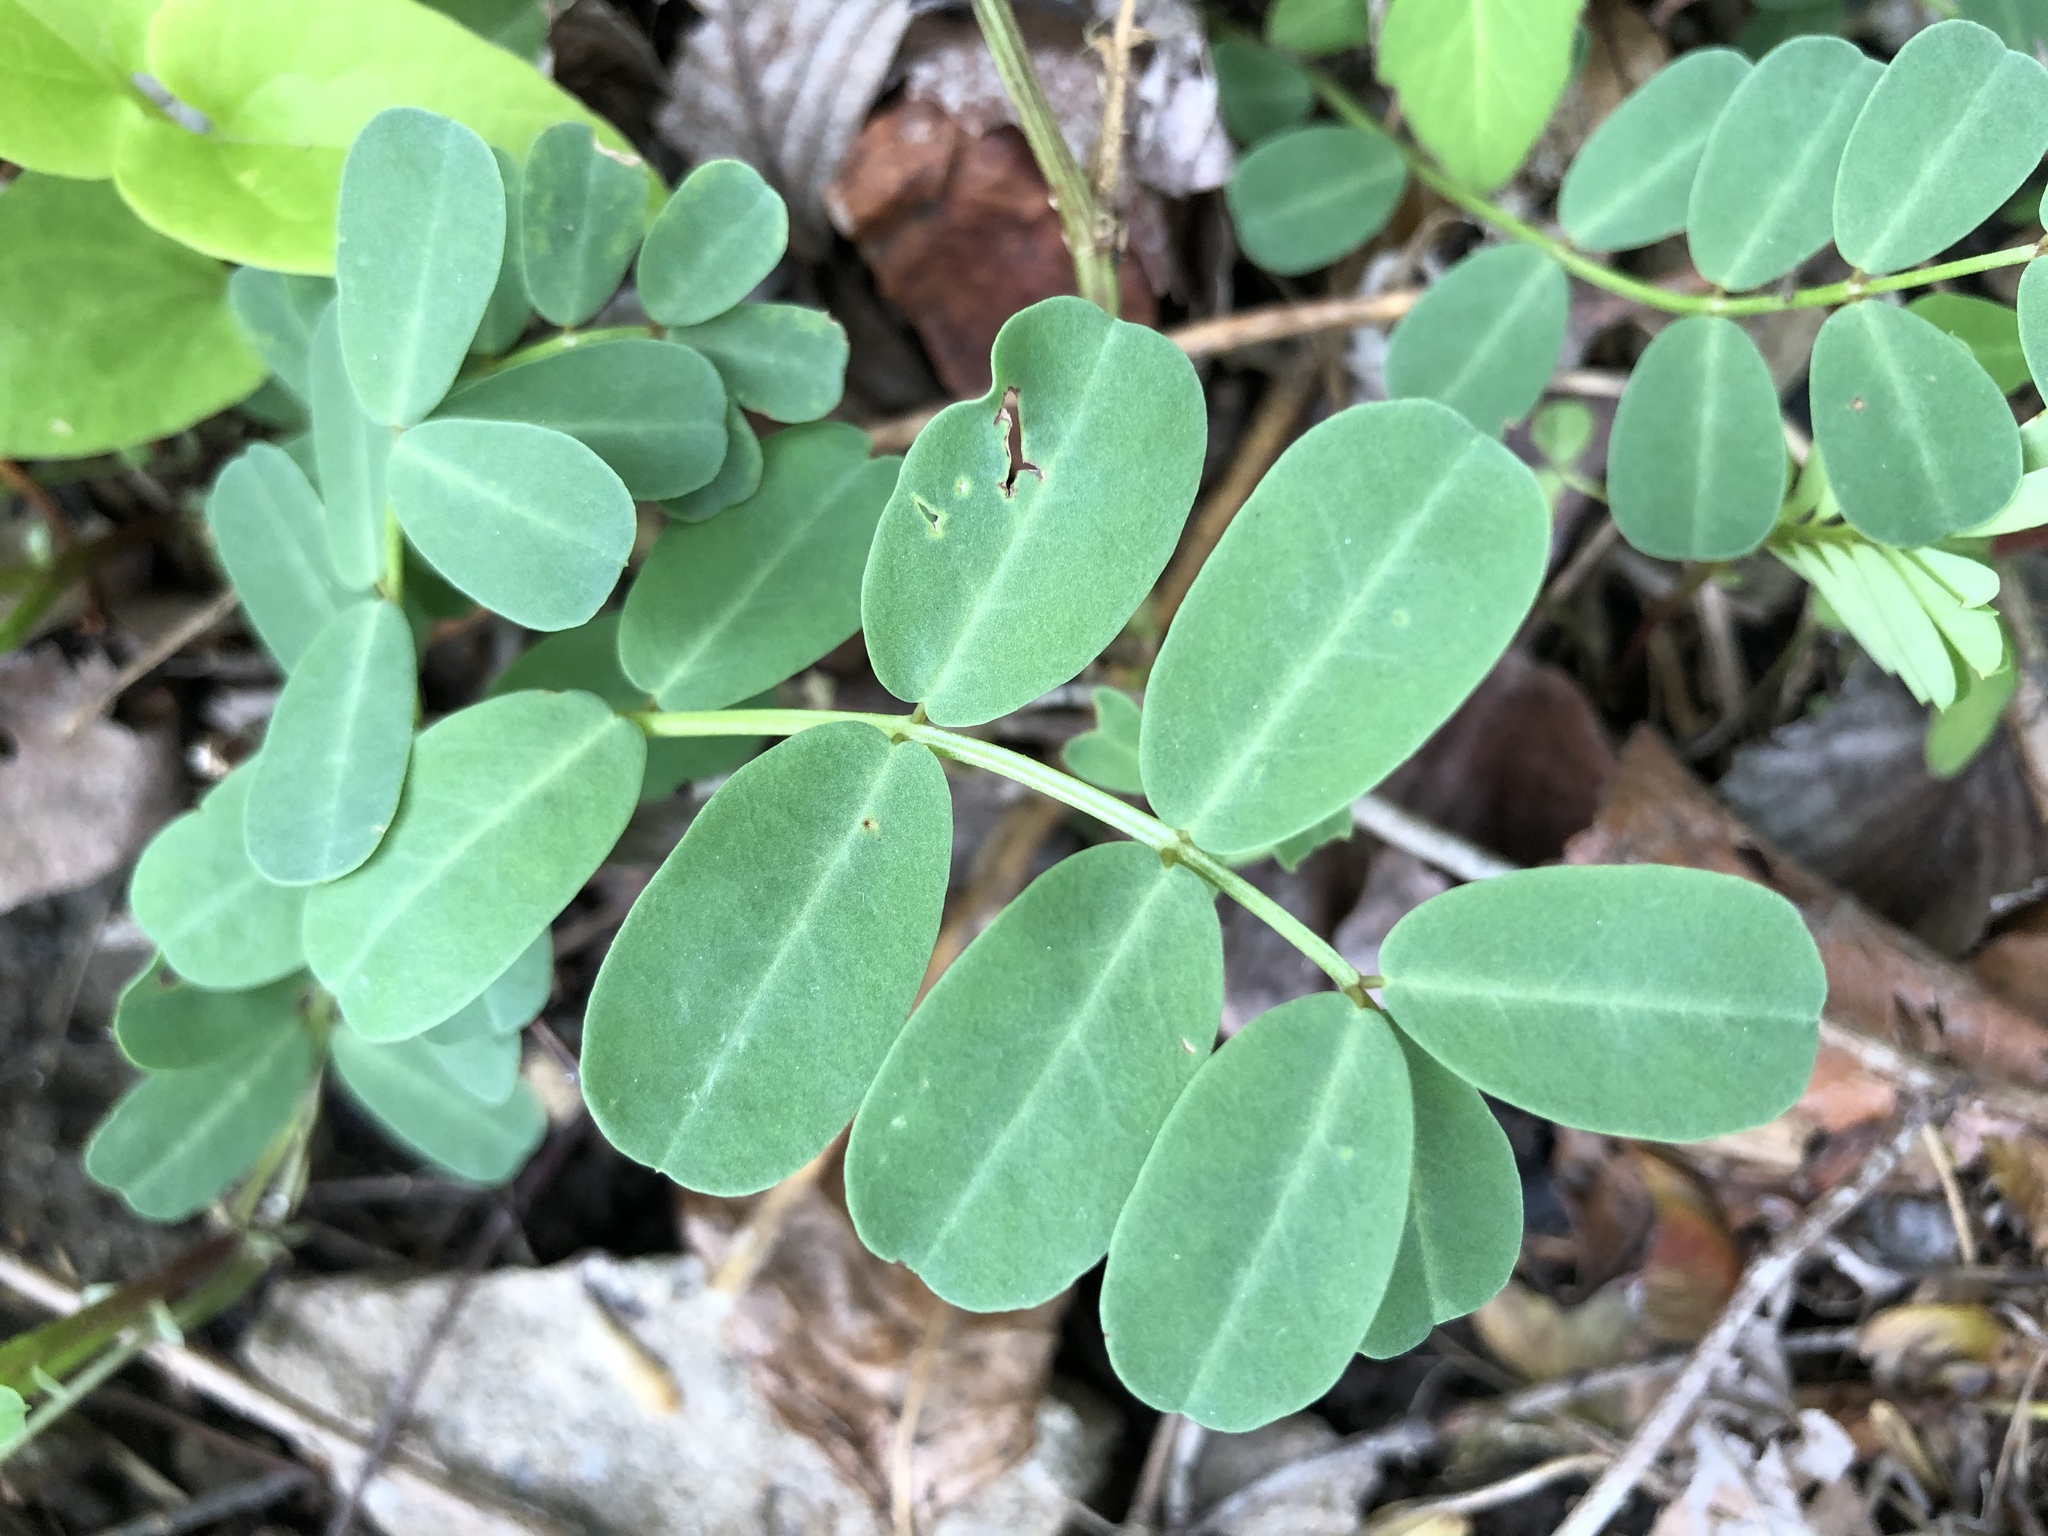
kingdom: Plantae
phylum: Tracheophyta
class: Magnoliopsida
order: Fabales
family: Fabaceae
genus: Coronilla
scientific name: Coronilla varia
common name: Crownvetch
